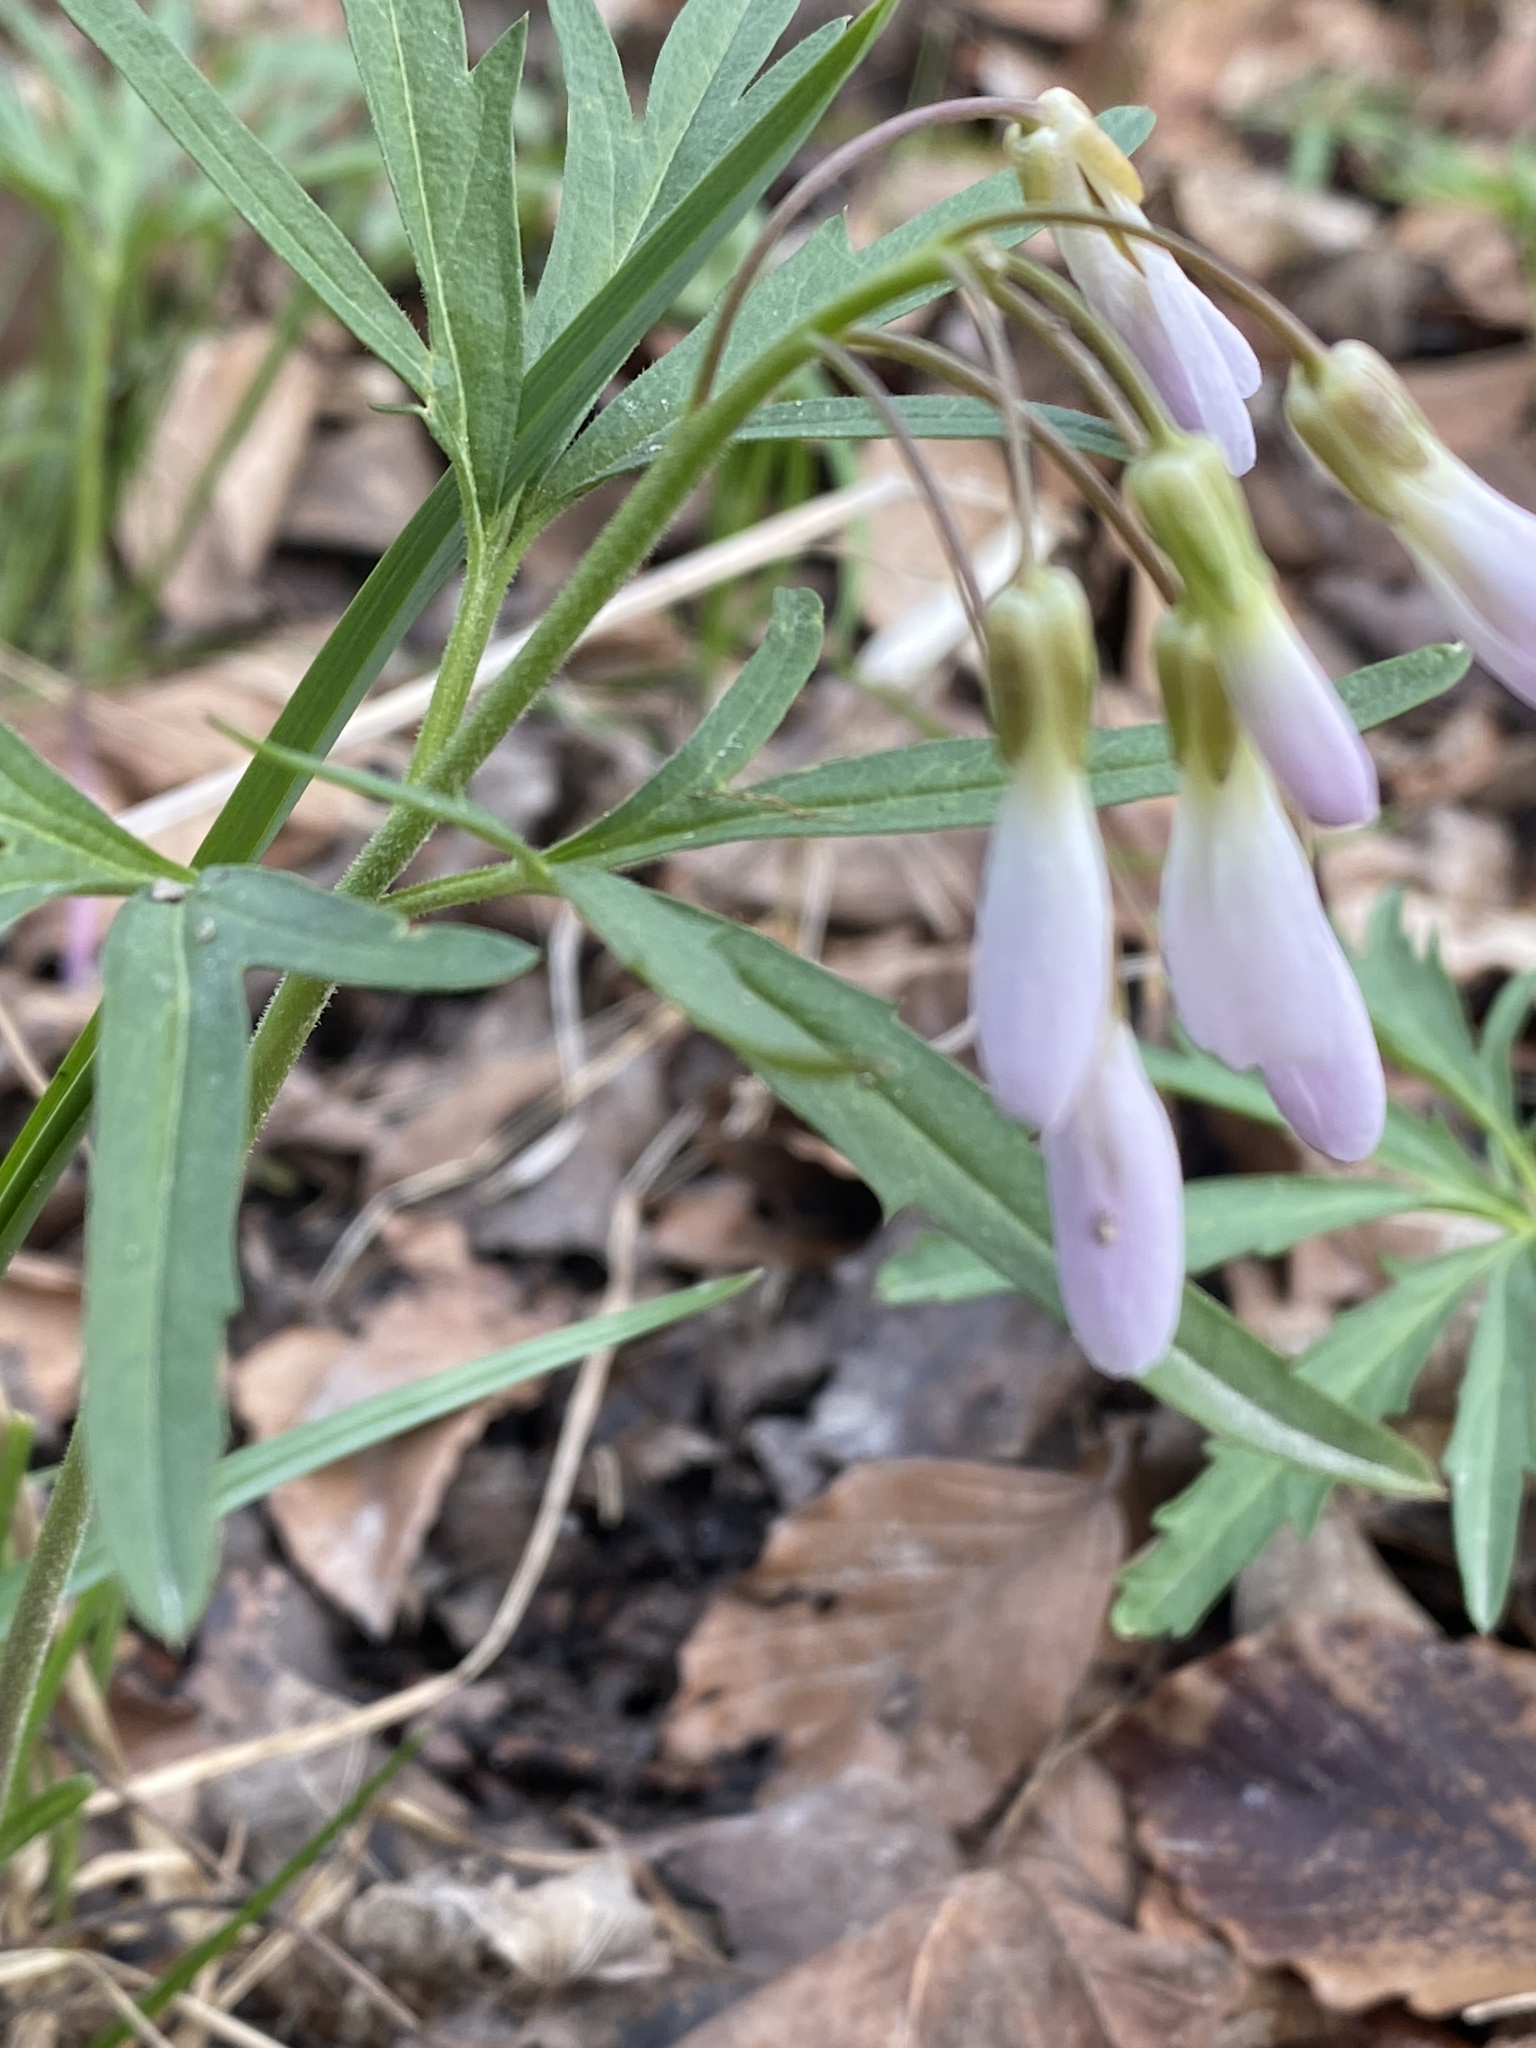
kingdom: Plantae
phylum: Tracheophyta
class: Magnoliopsida
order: Brassicales
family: Brassicaceae
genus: Cardamine
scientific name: Cardamine concatenata
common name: Cut-leaf toothcup
